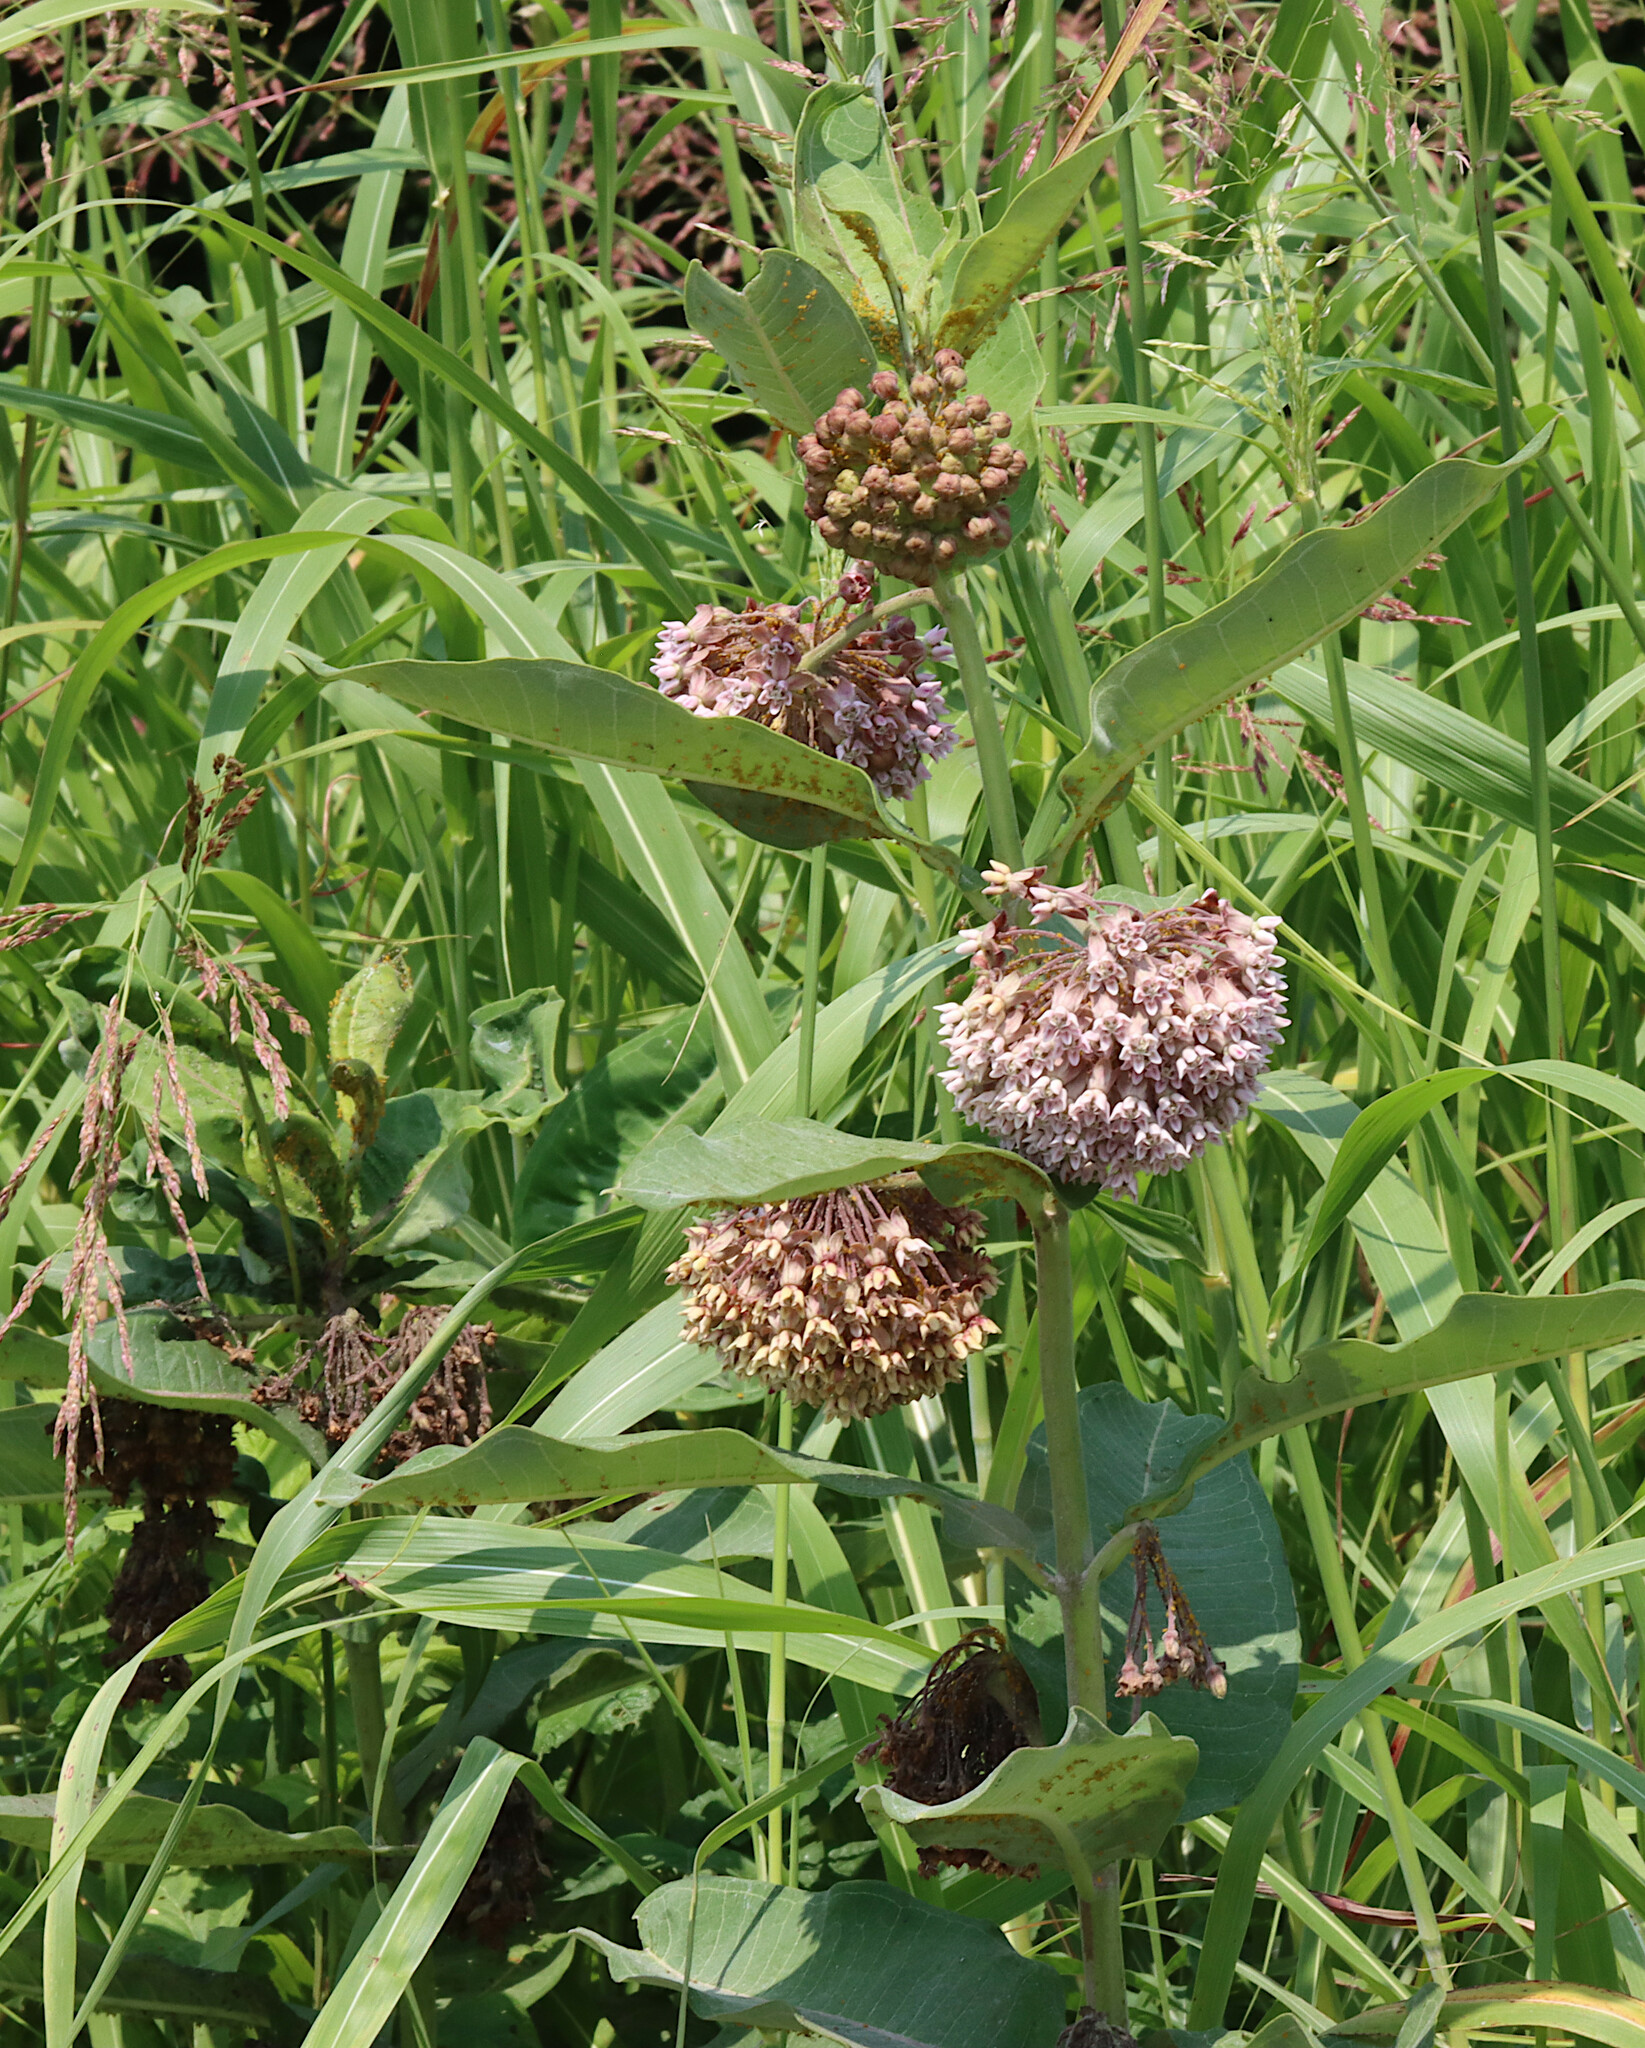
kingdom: Plantae
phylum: Tracheophyta
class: Magnoliopsida
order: Gentianales
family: Apocynaceae
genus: Asclepias
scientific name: Asclepias syriaca
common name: Common milkweed
